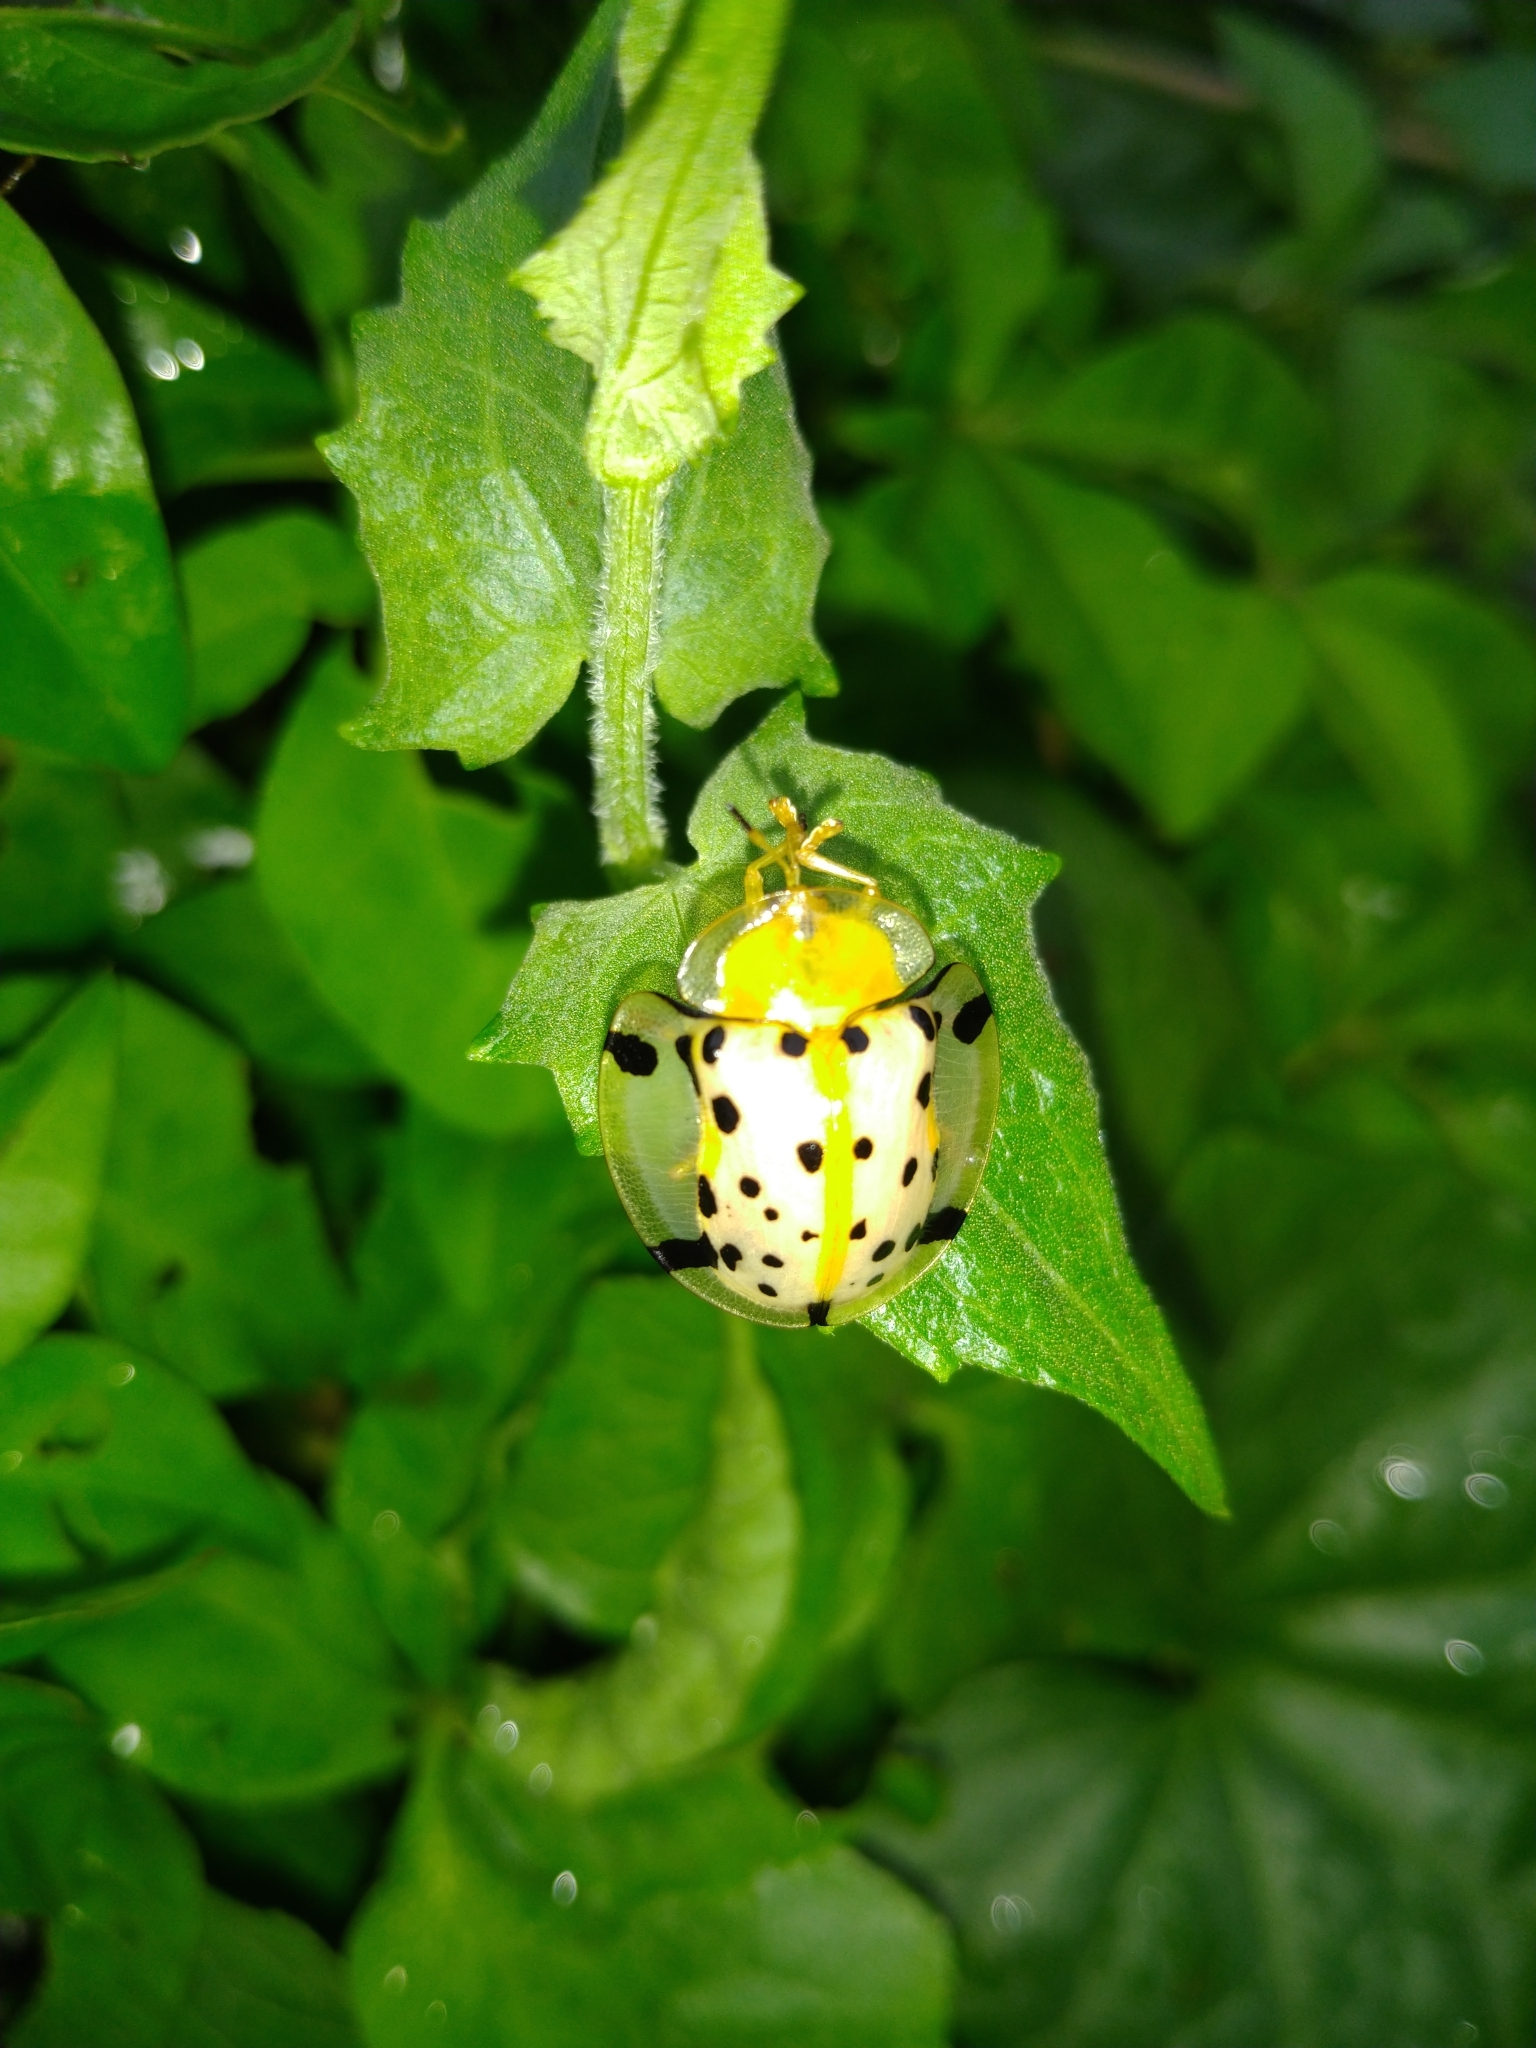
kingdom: Animalia
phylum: Arthropoda
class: Insecta
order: Coleoptera
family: Chrysomelidae
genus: Aspidimorpha
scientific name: Aspidimorpha miliaris
